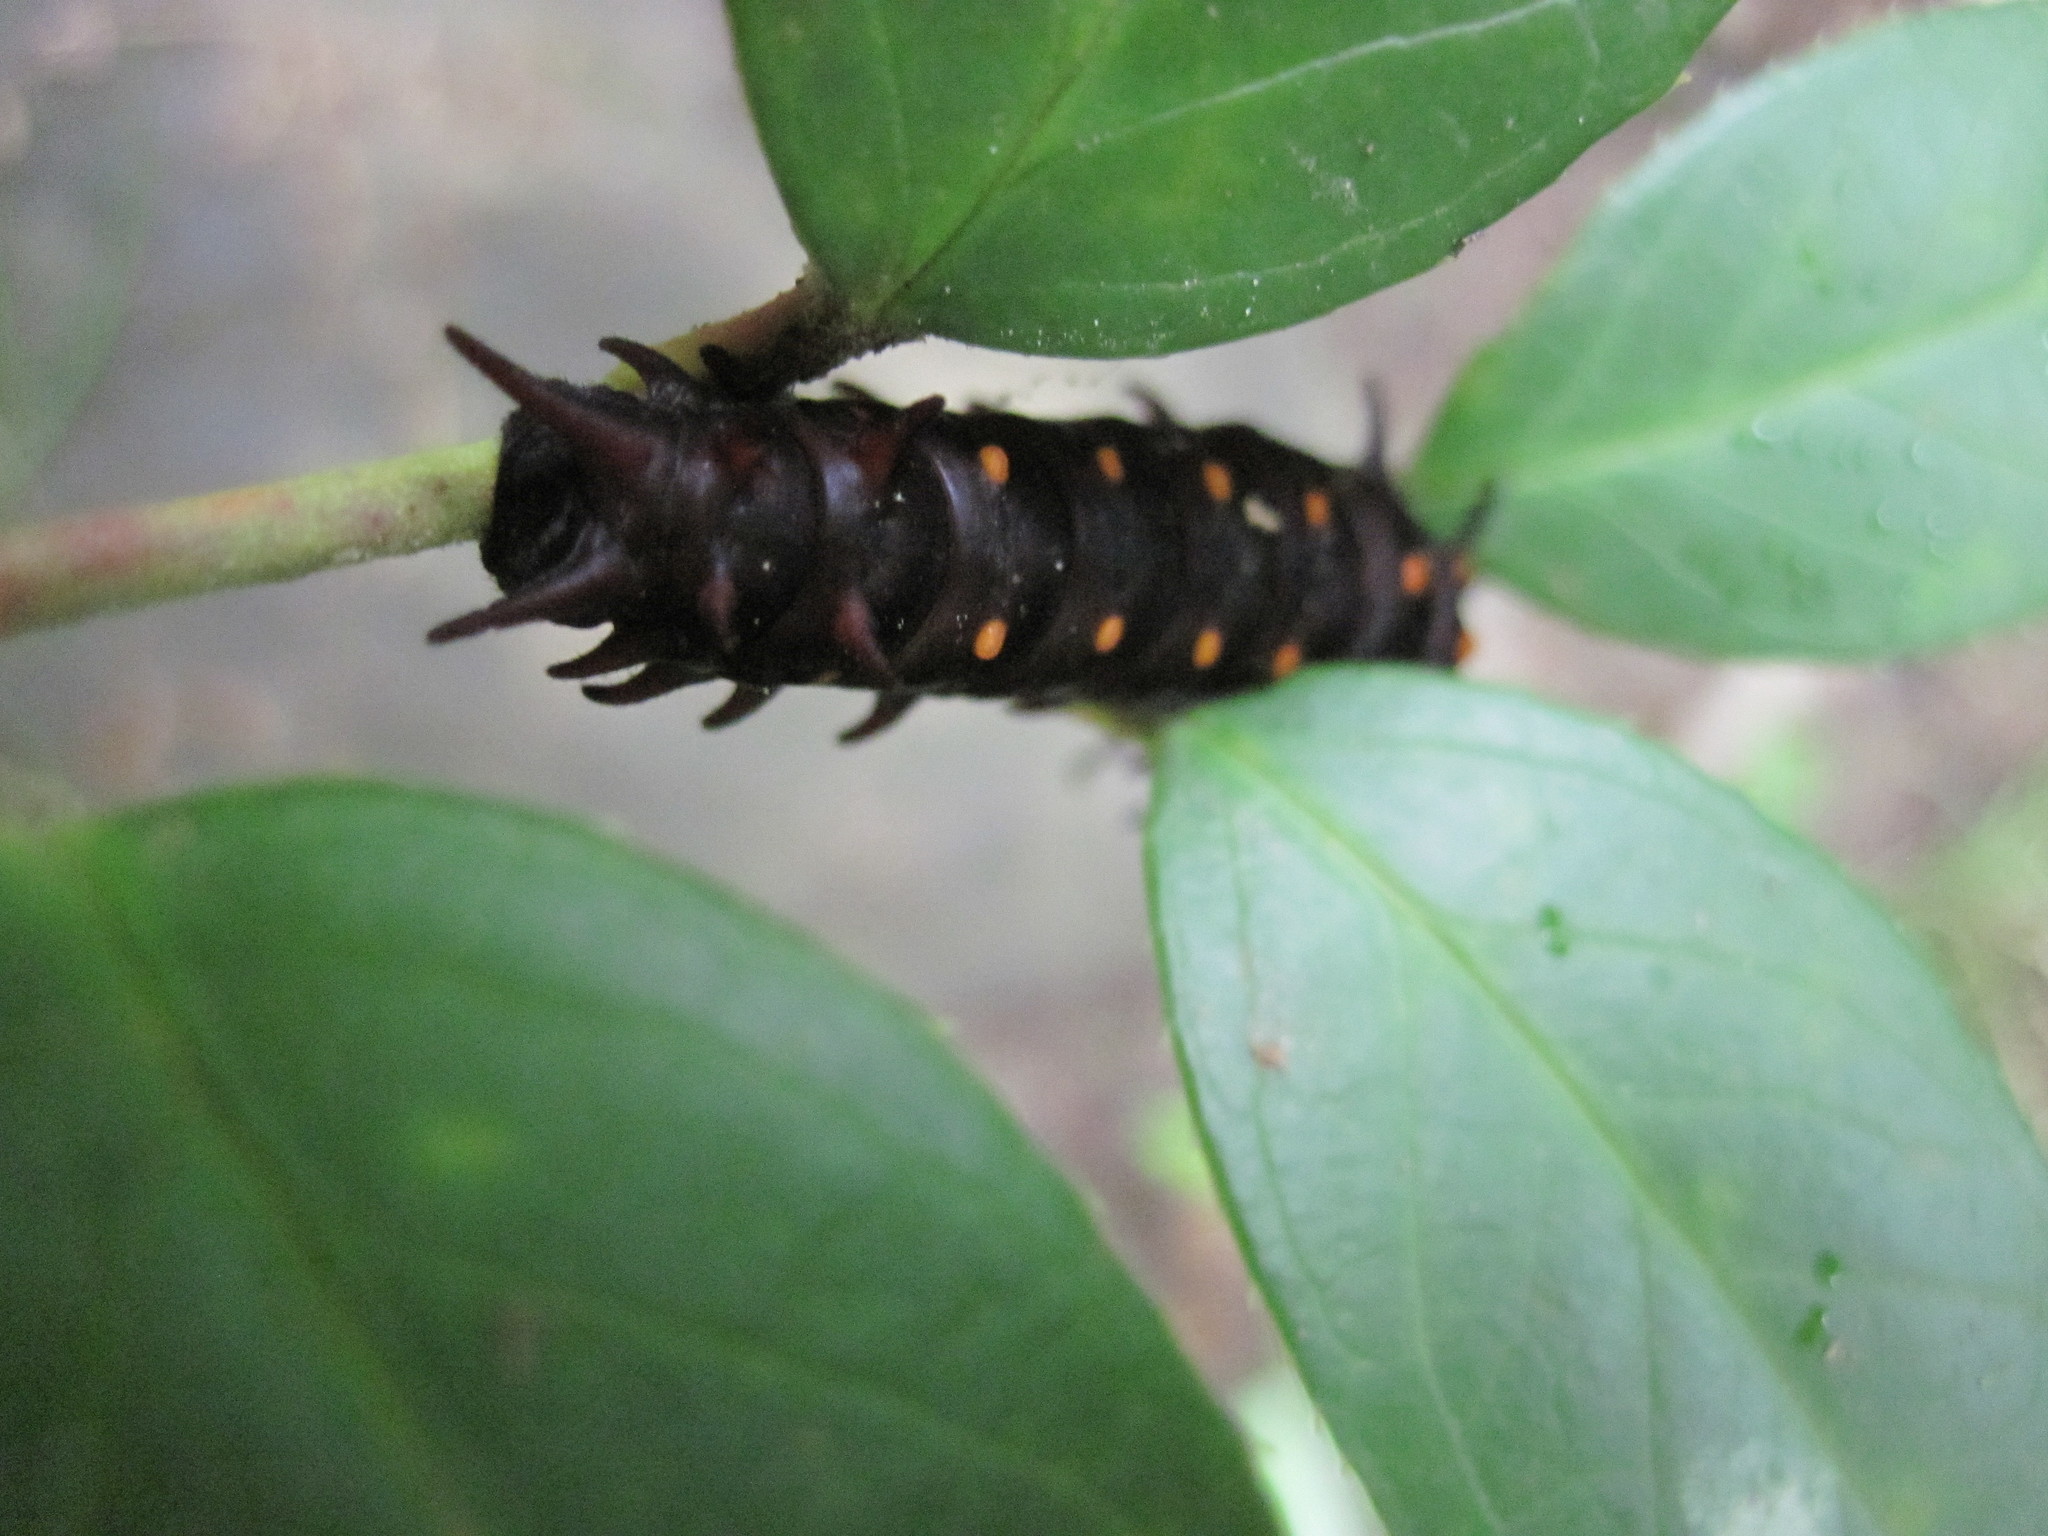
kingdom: Animalia
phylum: Arthropoda
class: Insecta
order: Lepidoptera
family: Papilionidae
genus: Battus
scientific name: Battus philenor
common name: Pipevine swallowtail
